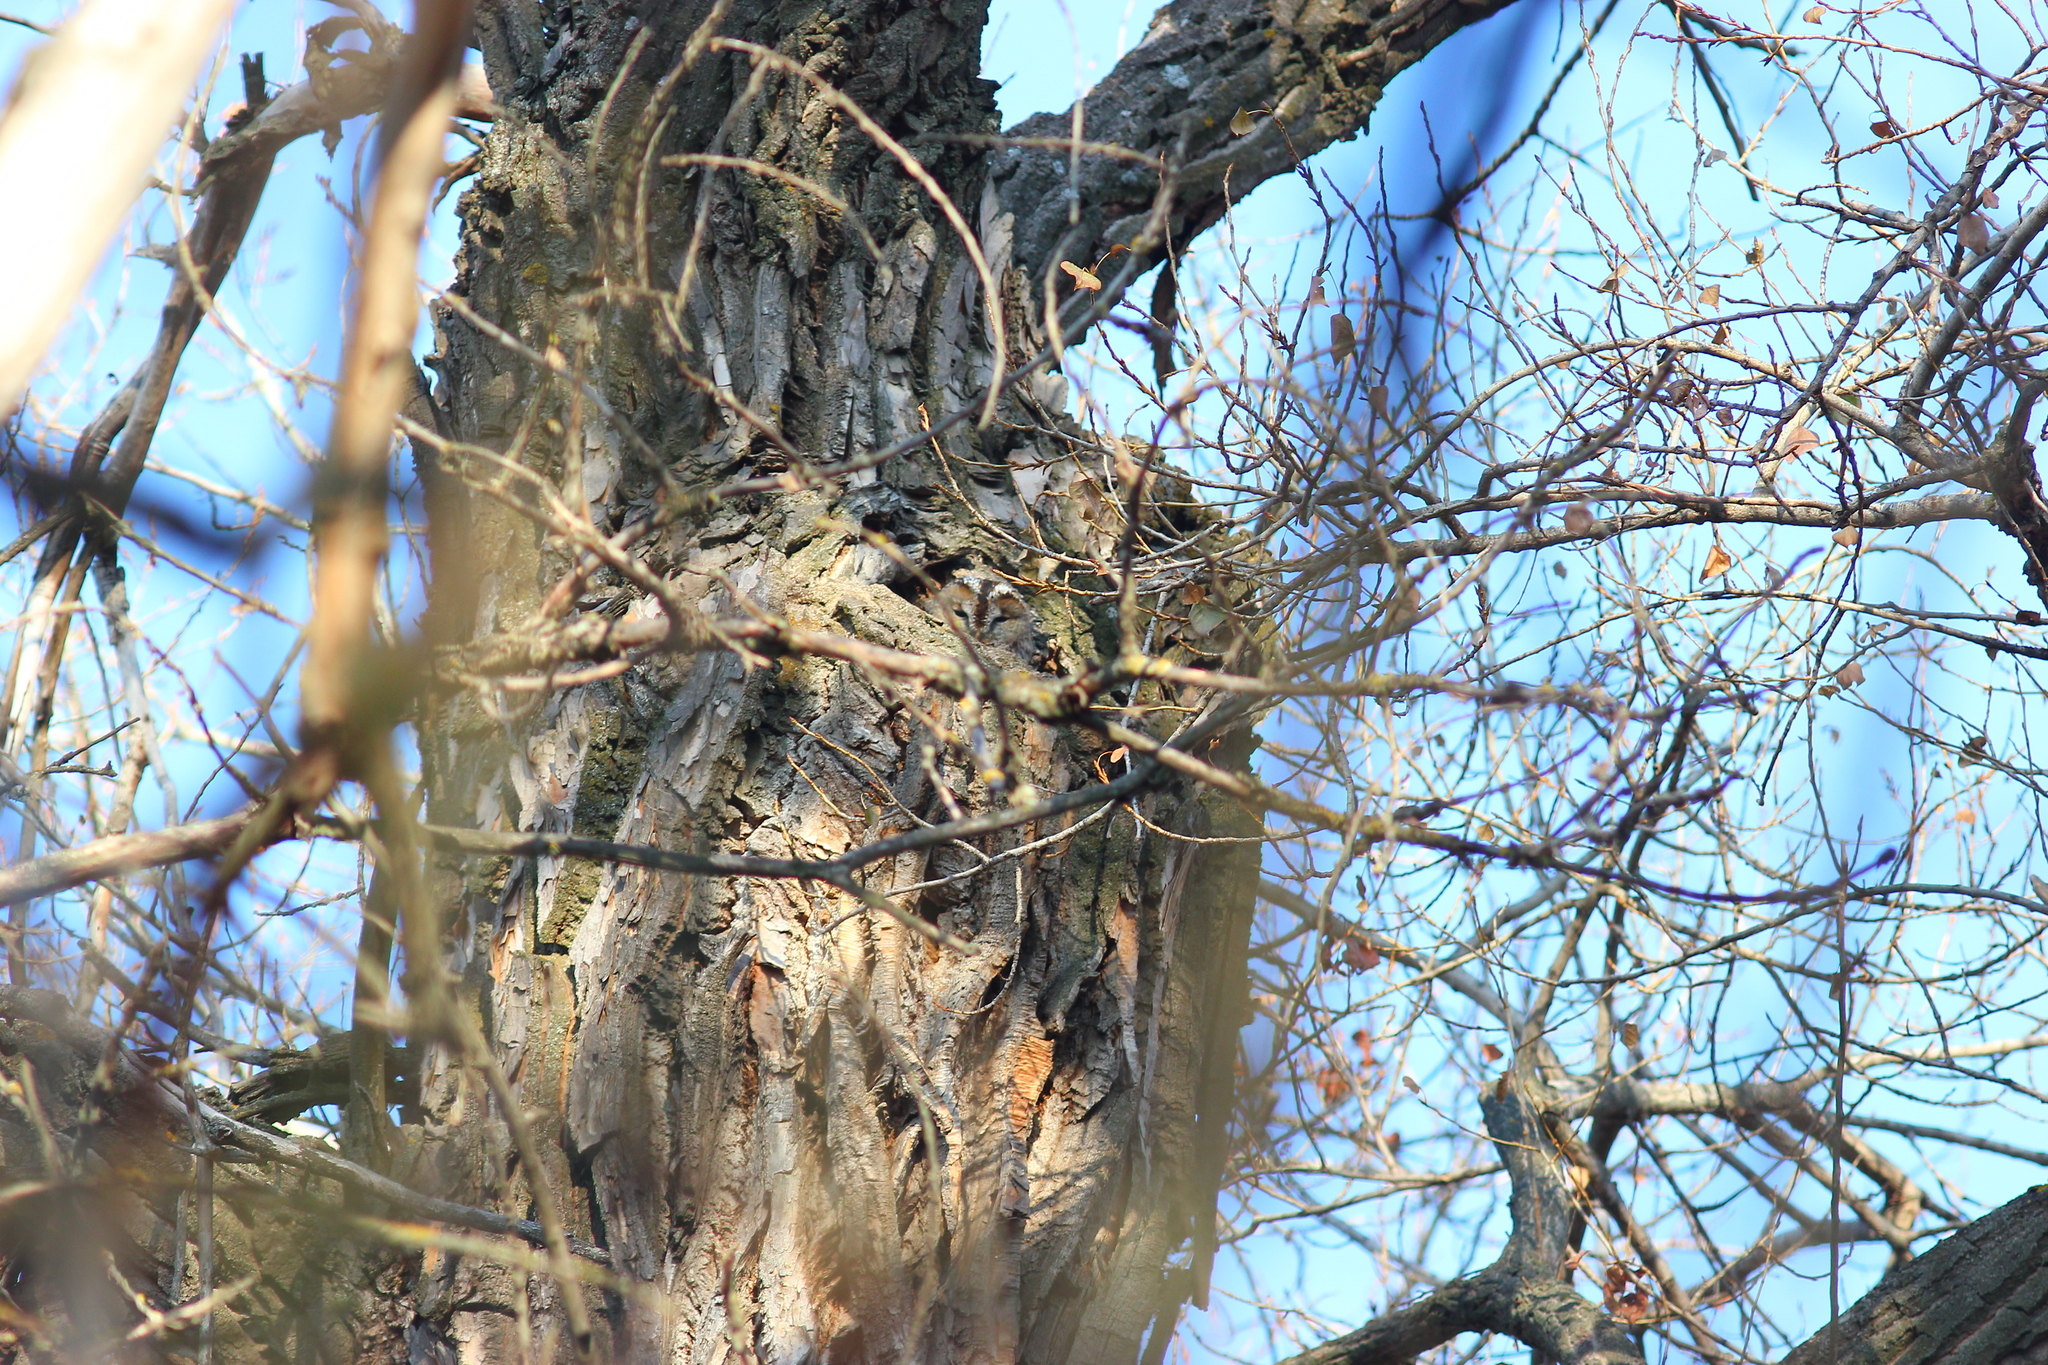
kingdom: Animalia
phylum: Chordata
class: Aves
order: Strigiformes
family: Strigidae
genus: Strix
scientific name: Strix aluco
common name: Tawny owl
